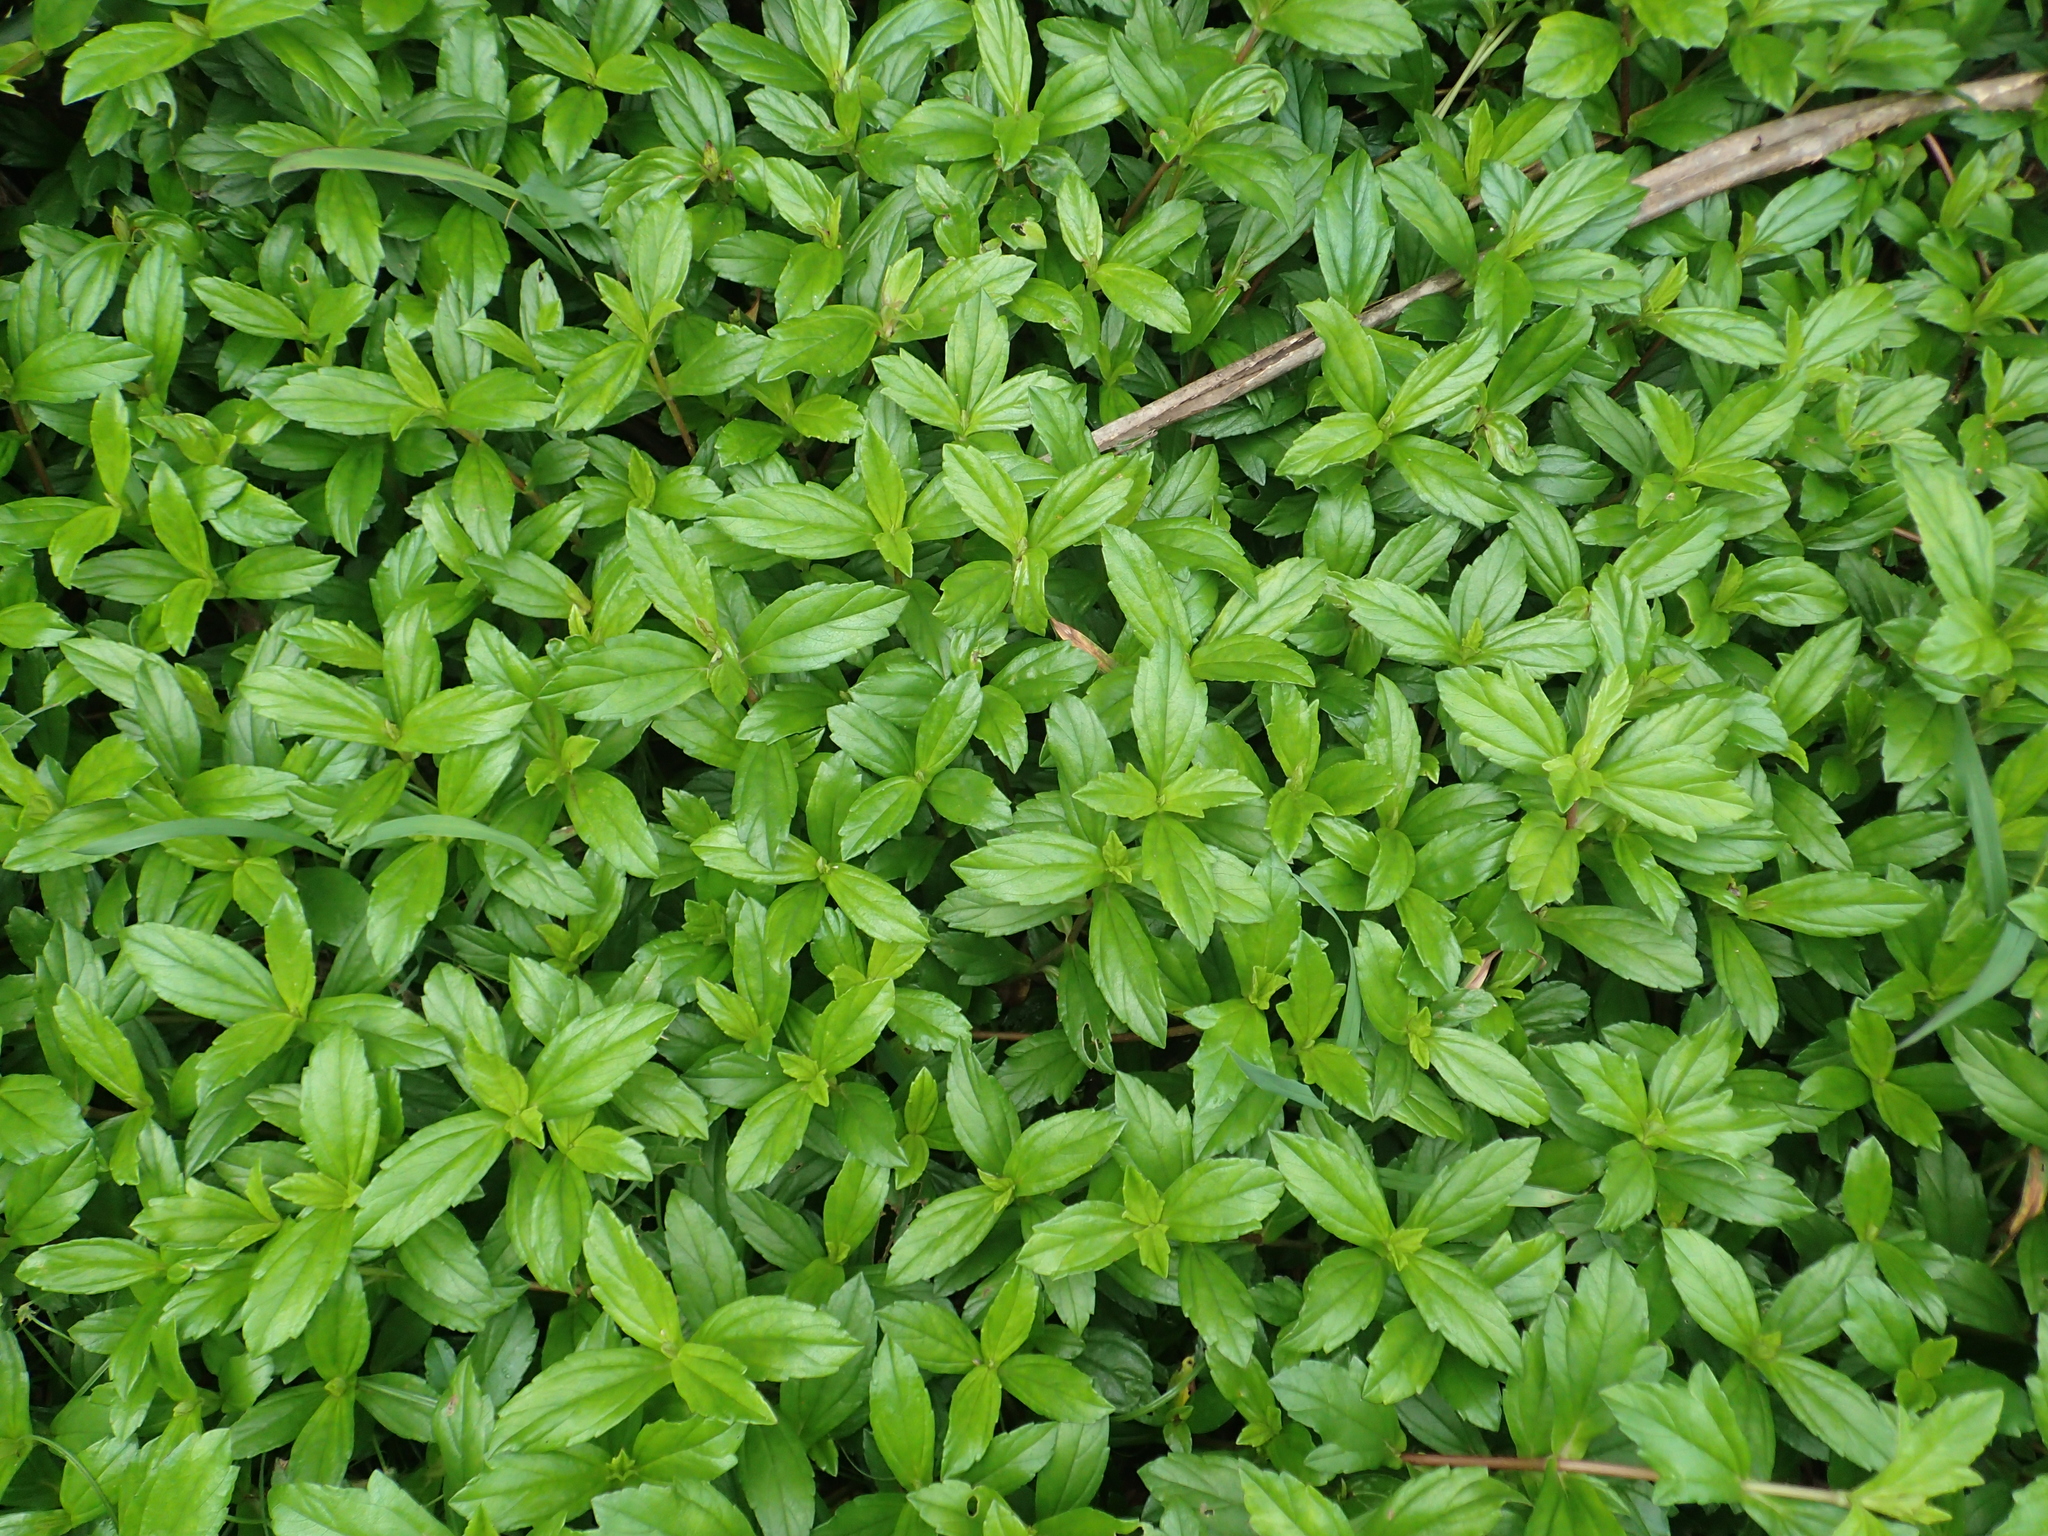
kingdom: Plantae
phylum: Tracheophyta
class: Magnoliopsida
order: Asterales
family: Asteraceae
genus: Sphagneticola
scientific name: Sphagneticola trilobata
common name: Bay biscayne creeping-oxeye
